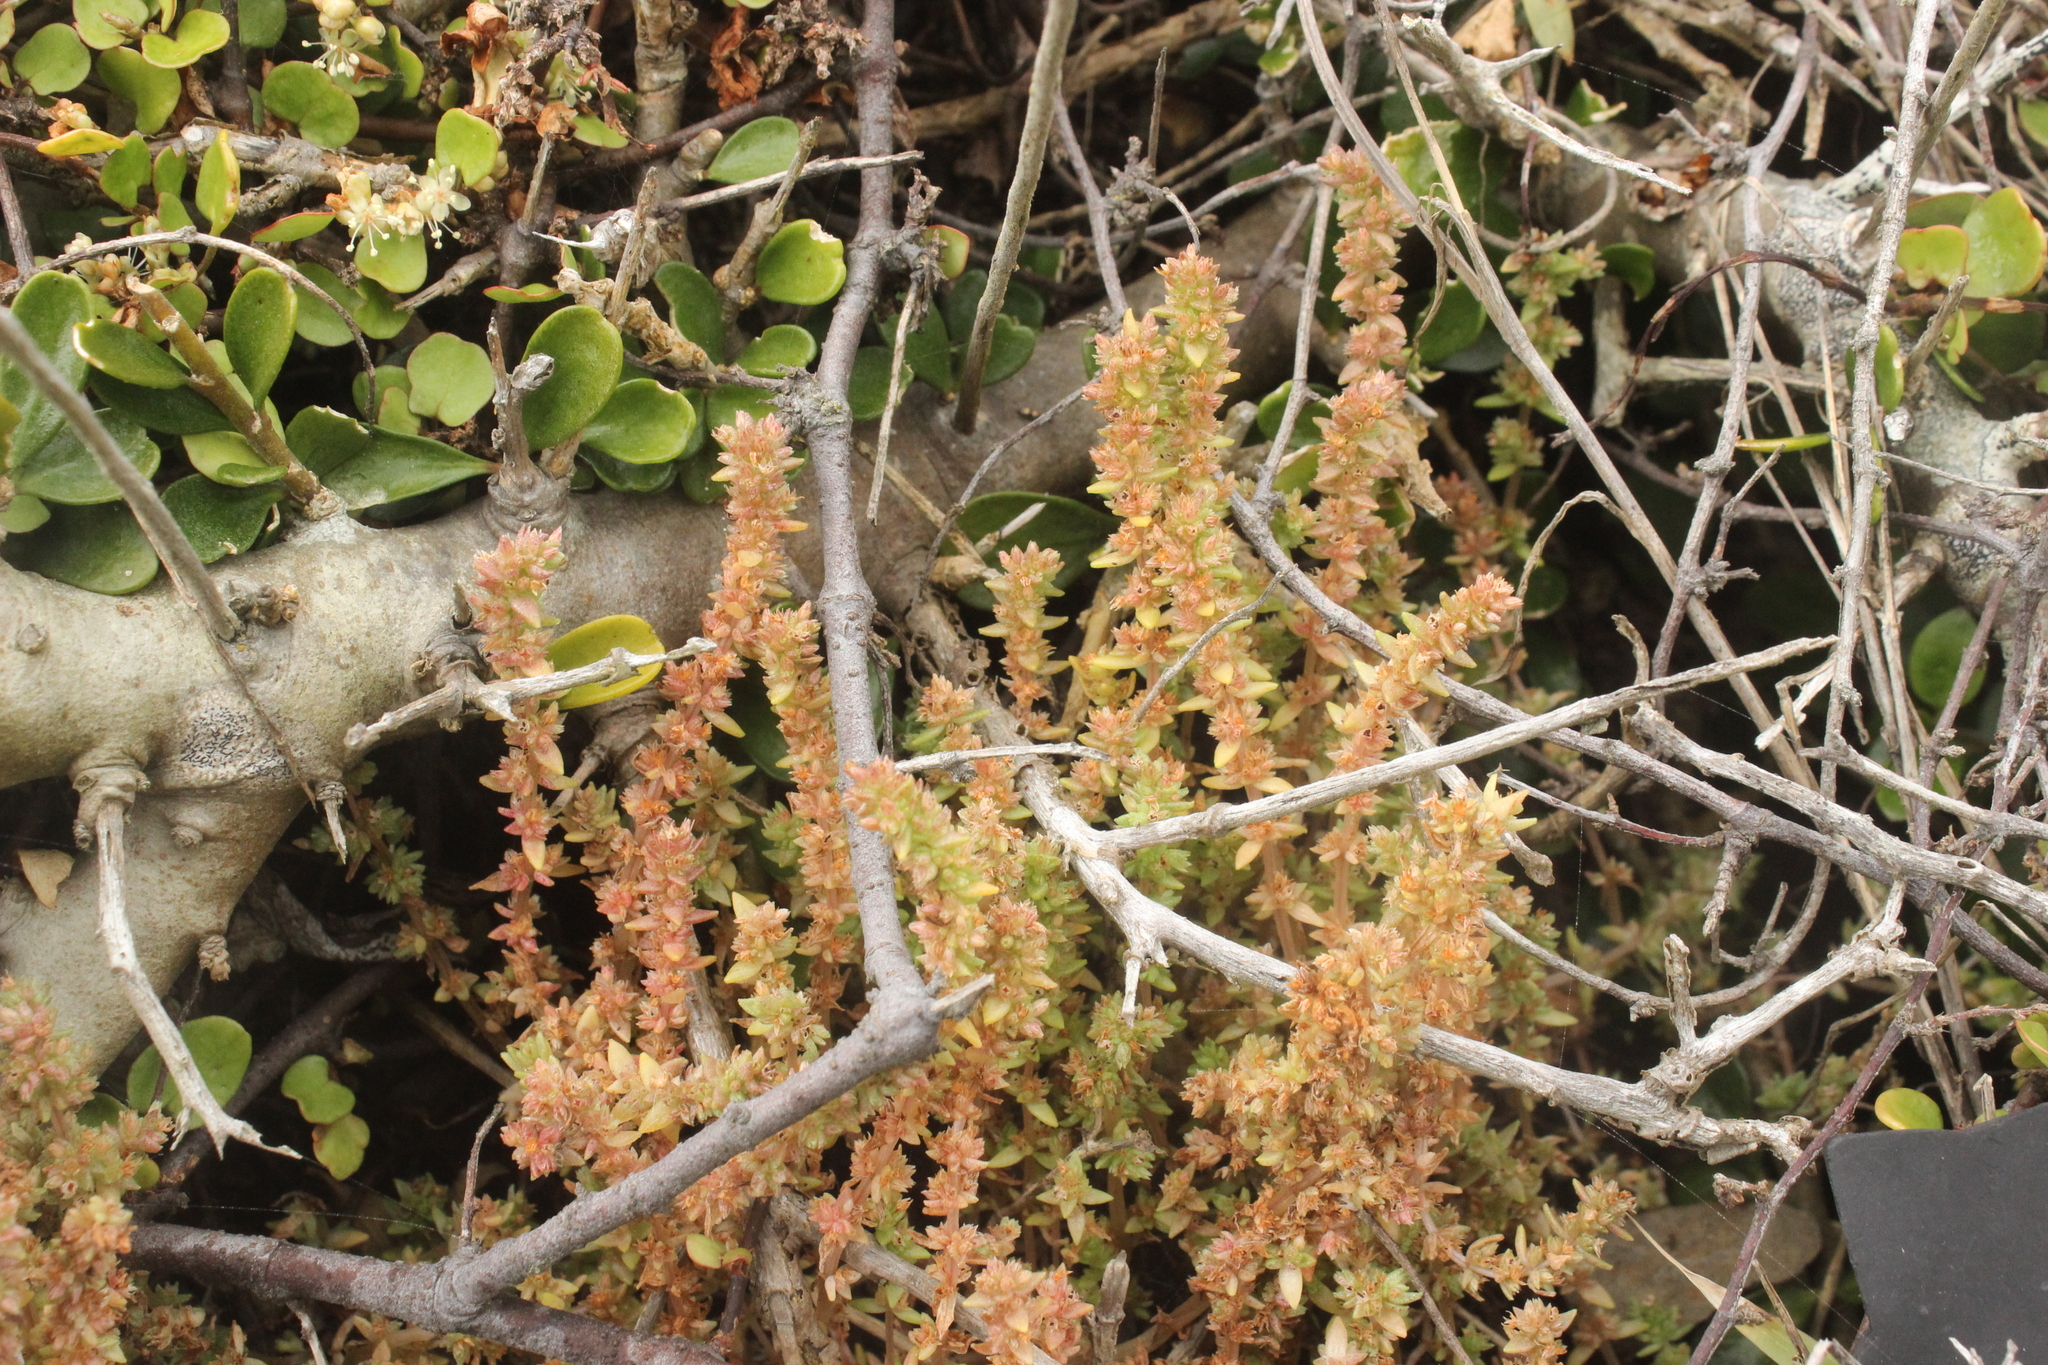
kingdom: Plantae
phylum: Tracheophyta
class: Magnoliopsida
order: Saxifragales
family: Crassulaceae
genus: Crassula
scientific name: Crassula sieberiana
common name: Siberian pygmyweed
